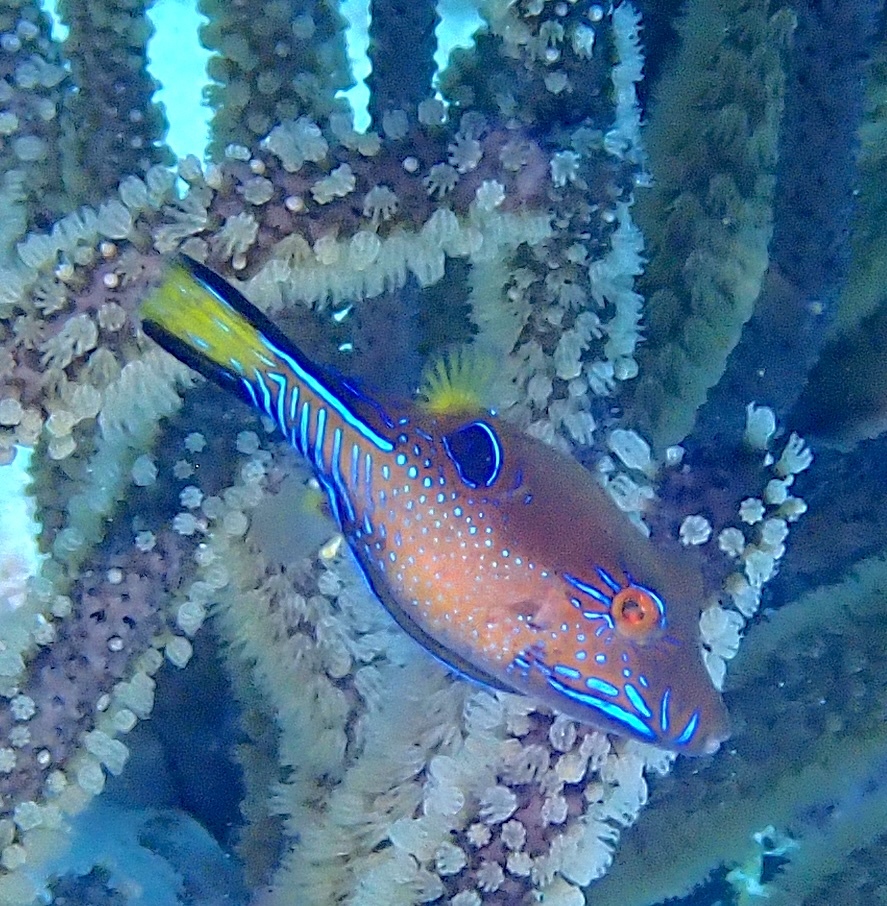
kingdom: Animalia
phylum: Chordata
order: Tetraodontiformes
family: Tetraodontidae
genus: Canthigaster
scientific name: Canthigaster rostrata
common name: Caribbean sharpnose-puffer
